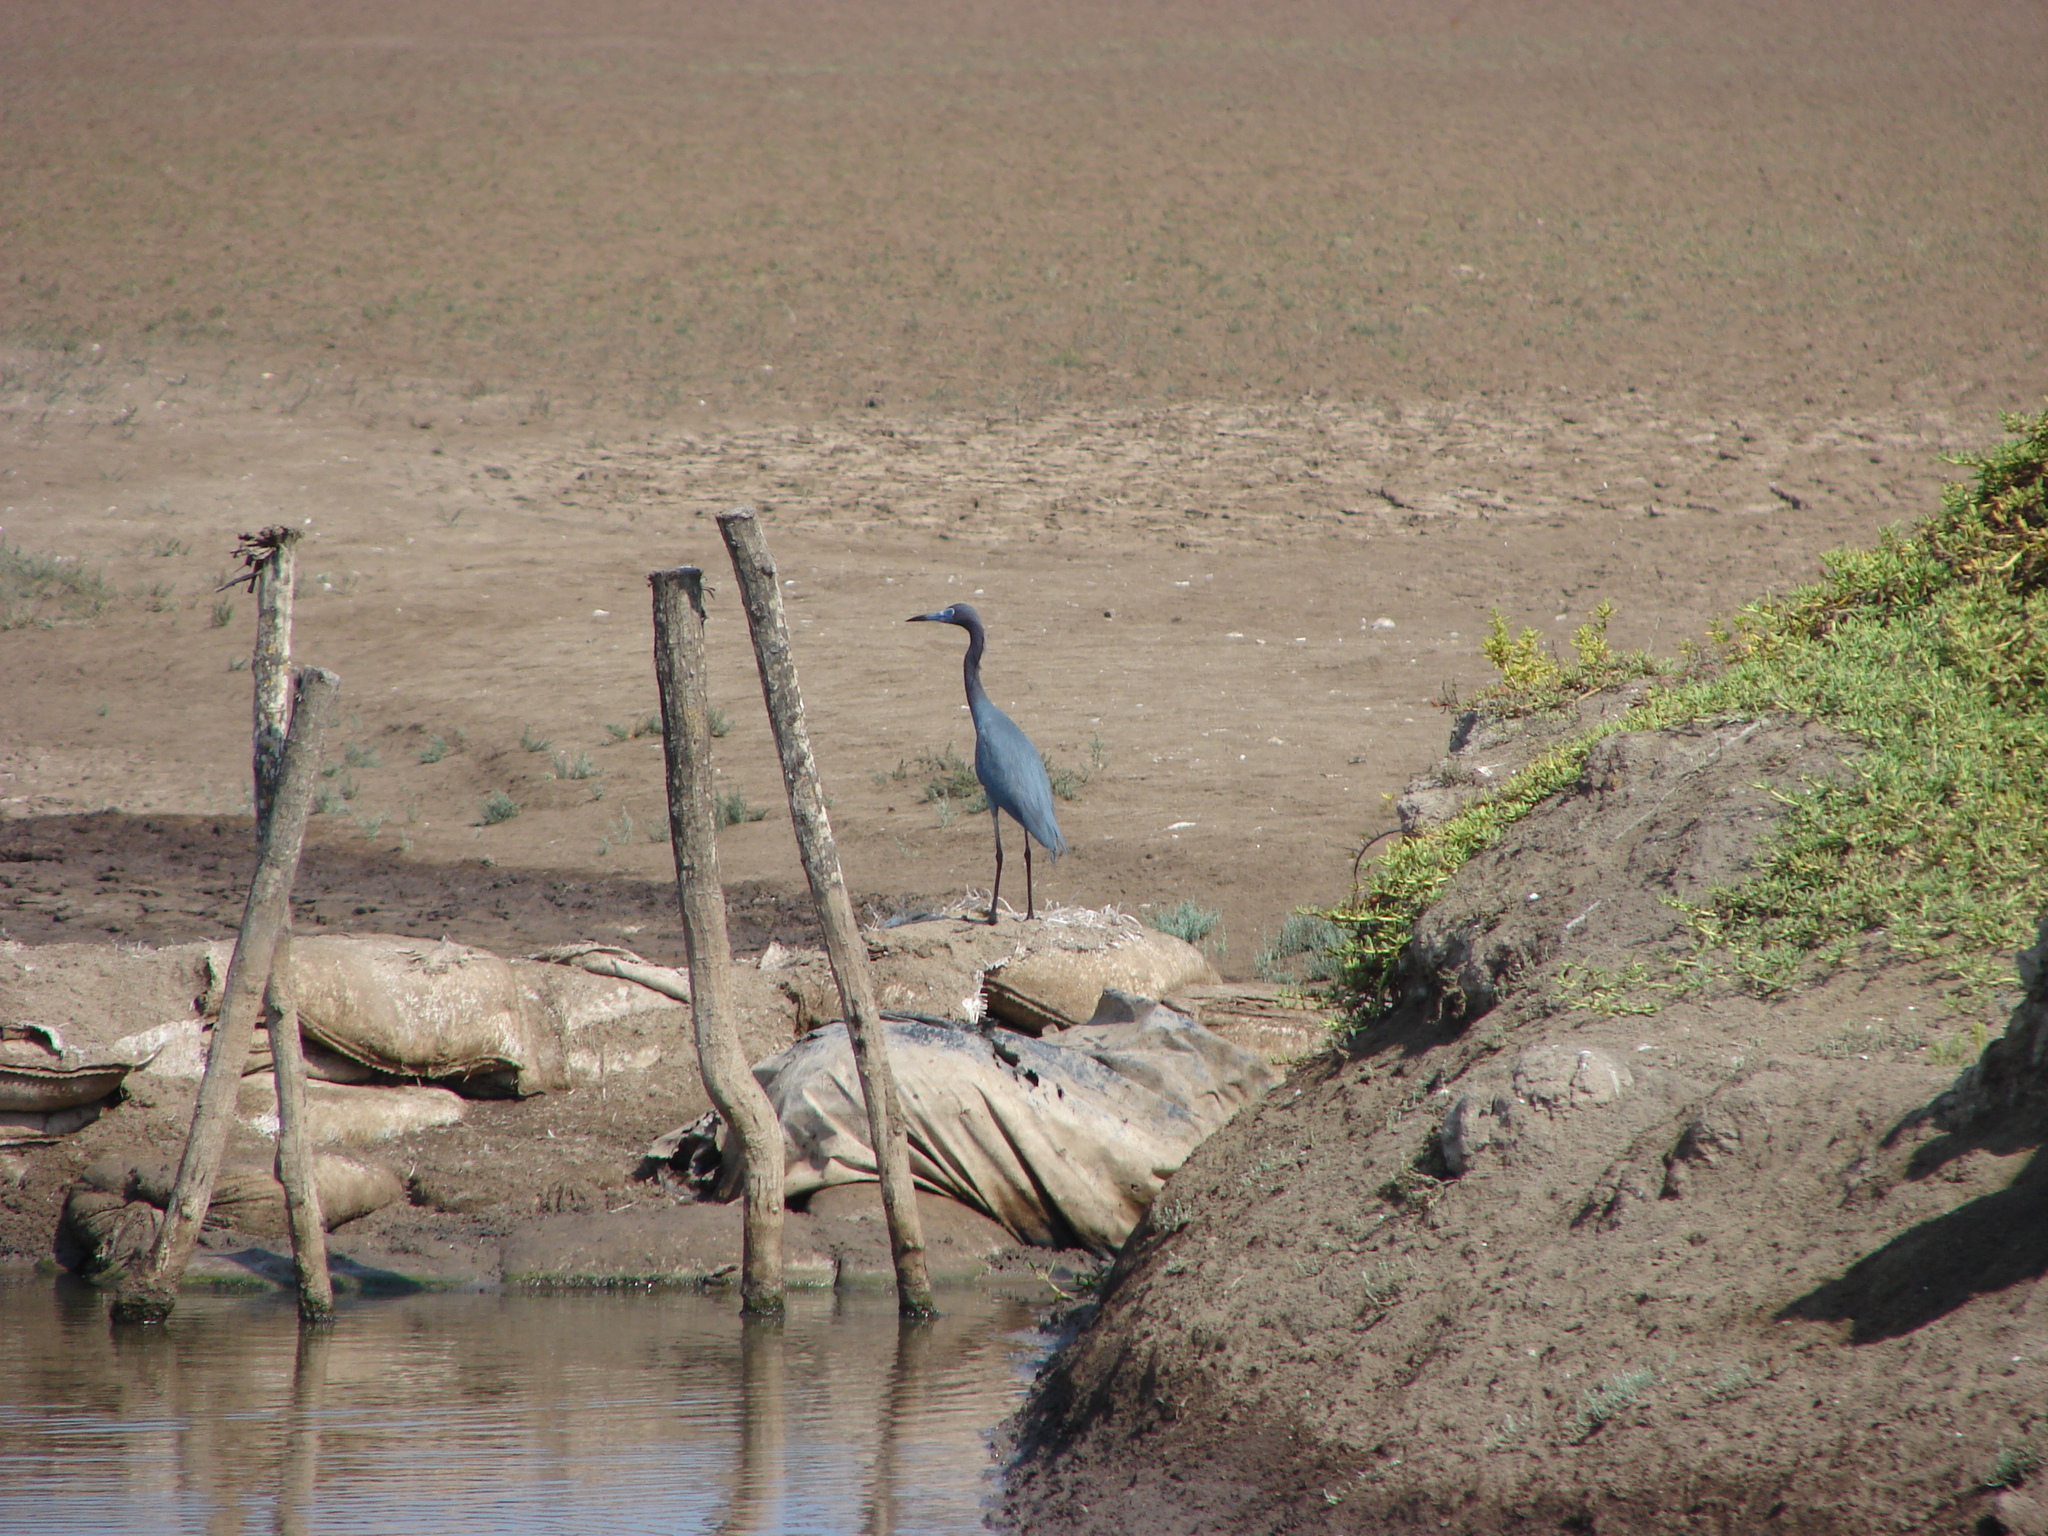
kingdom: Animalia
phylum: Chordata
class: Aves
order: Pelecaniformes
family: Ardeidae
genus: Egretta
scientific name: Egretta caerulea
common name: Little blue heron
